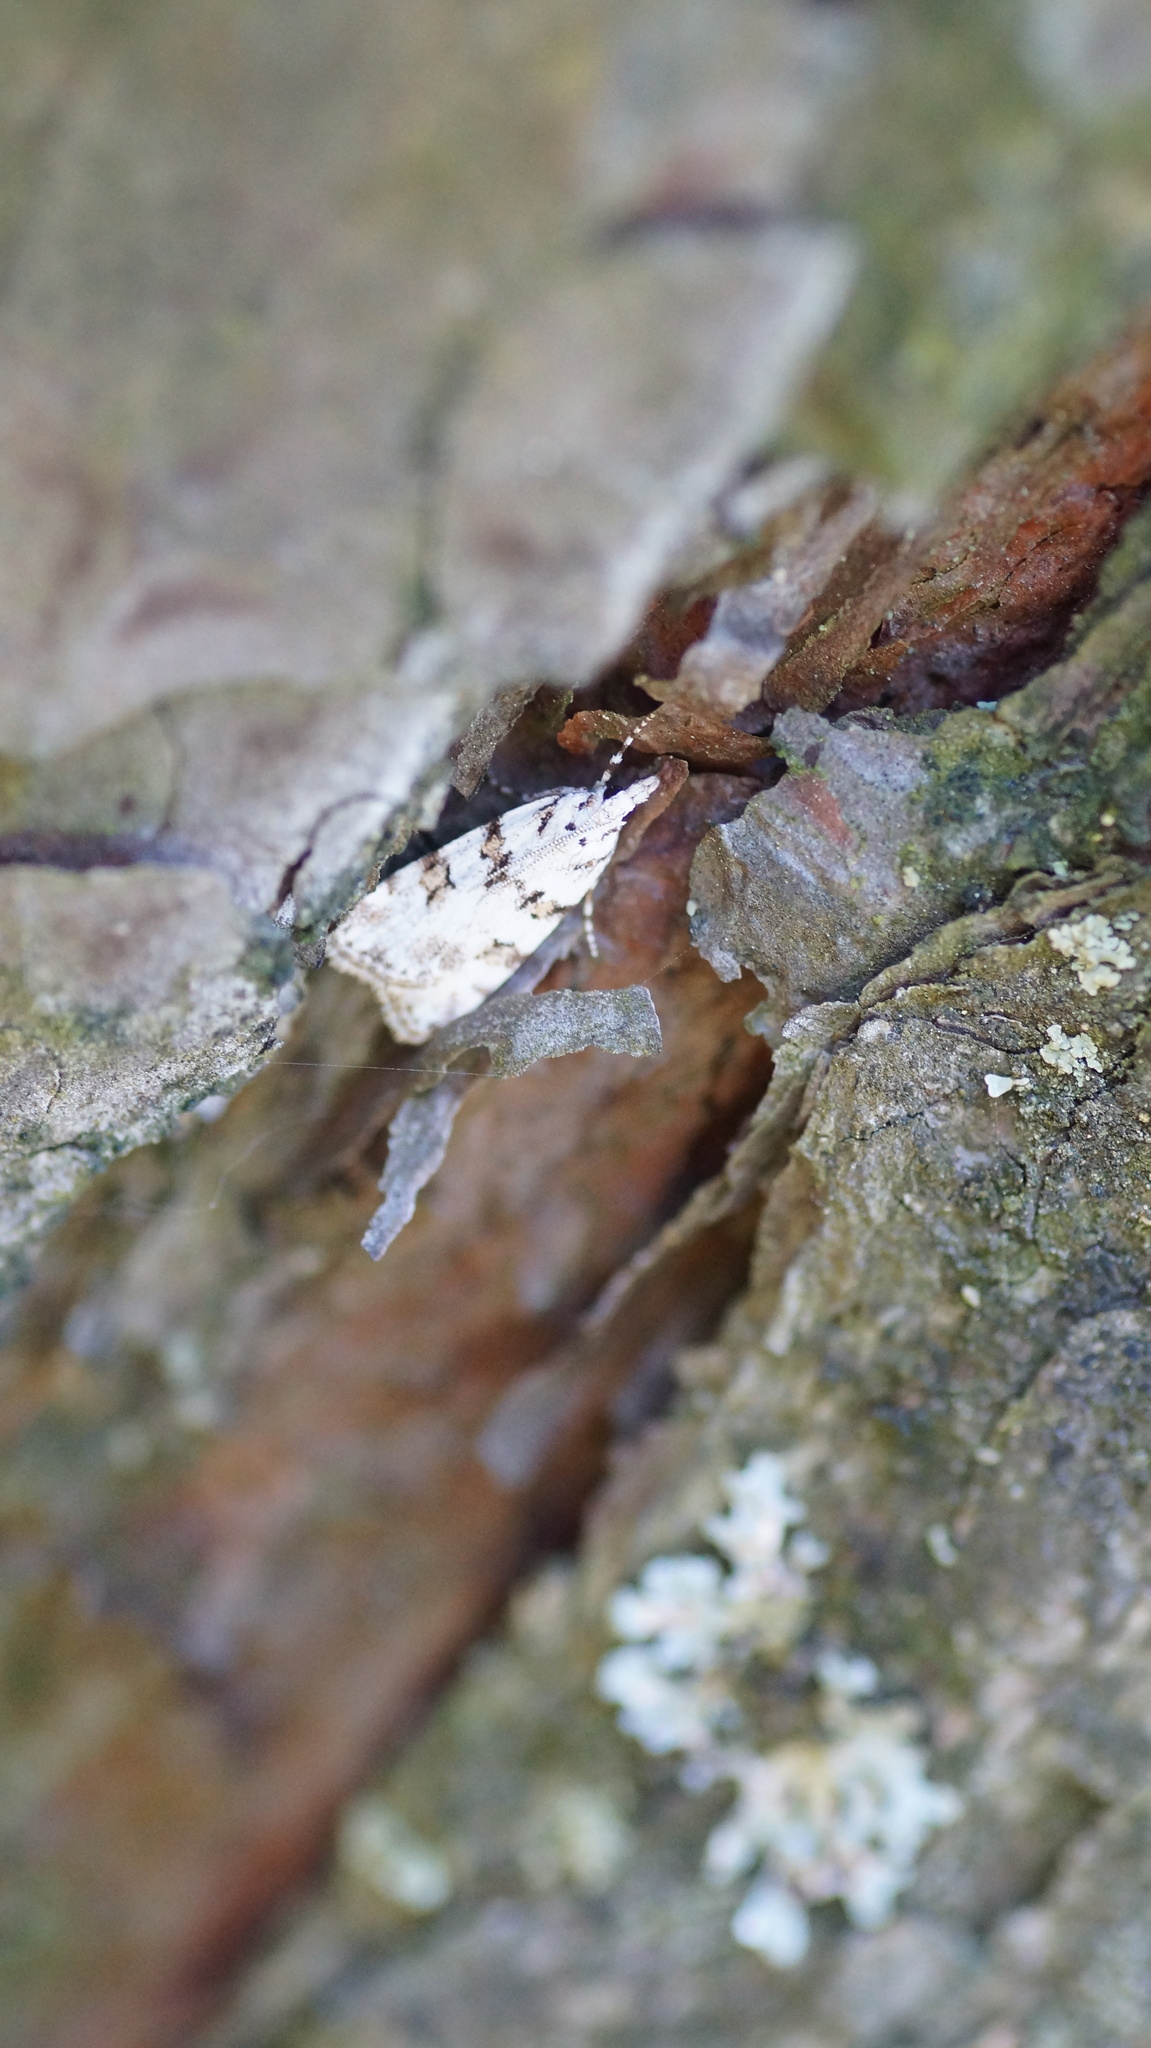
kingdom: Animalia
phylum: Arthropoda
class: Insecta
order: Lepidoptera
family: Crambidae
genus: Scoparia
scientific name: Scoparia pyralella
